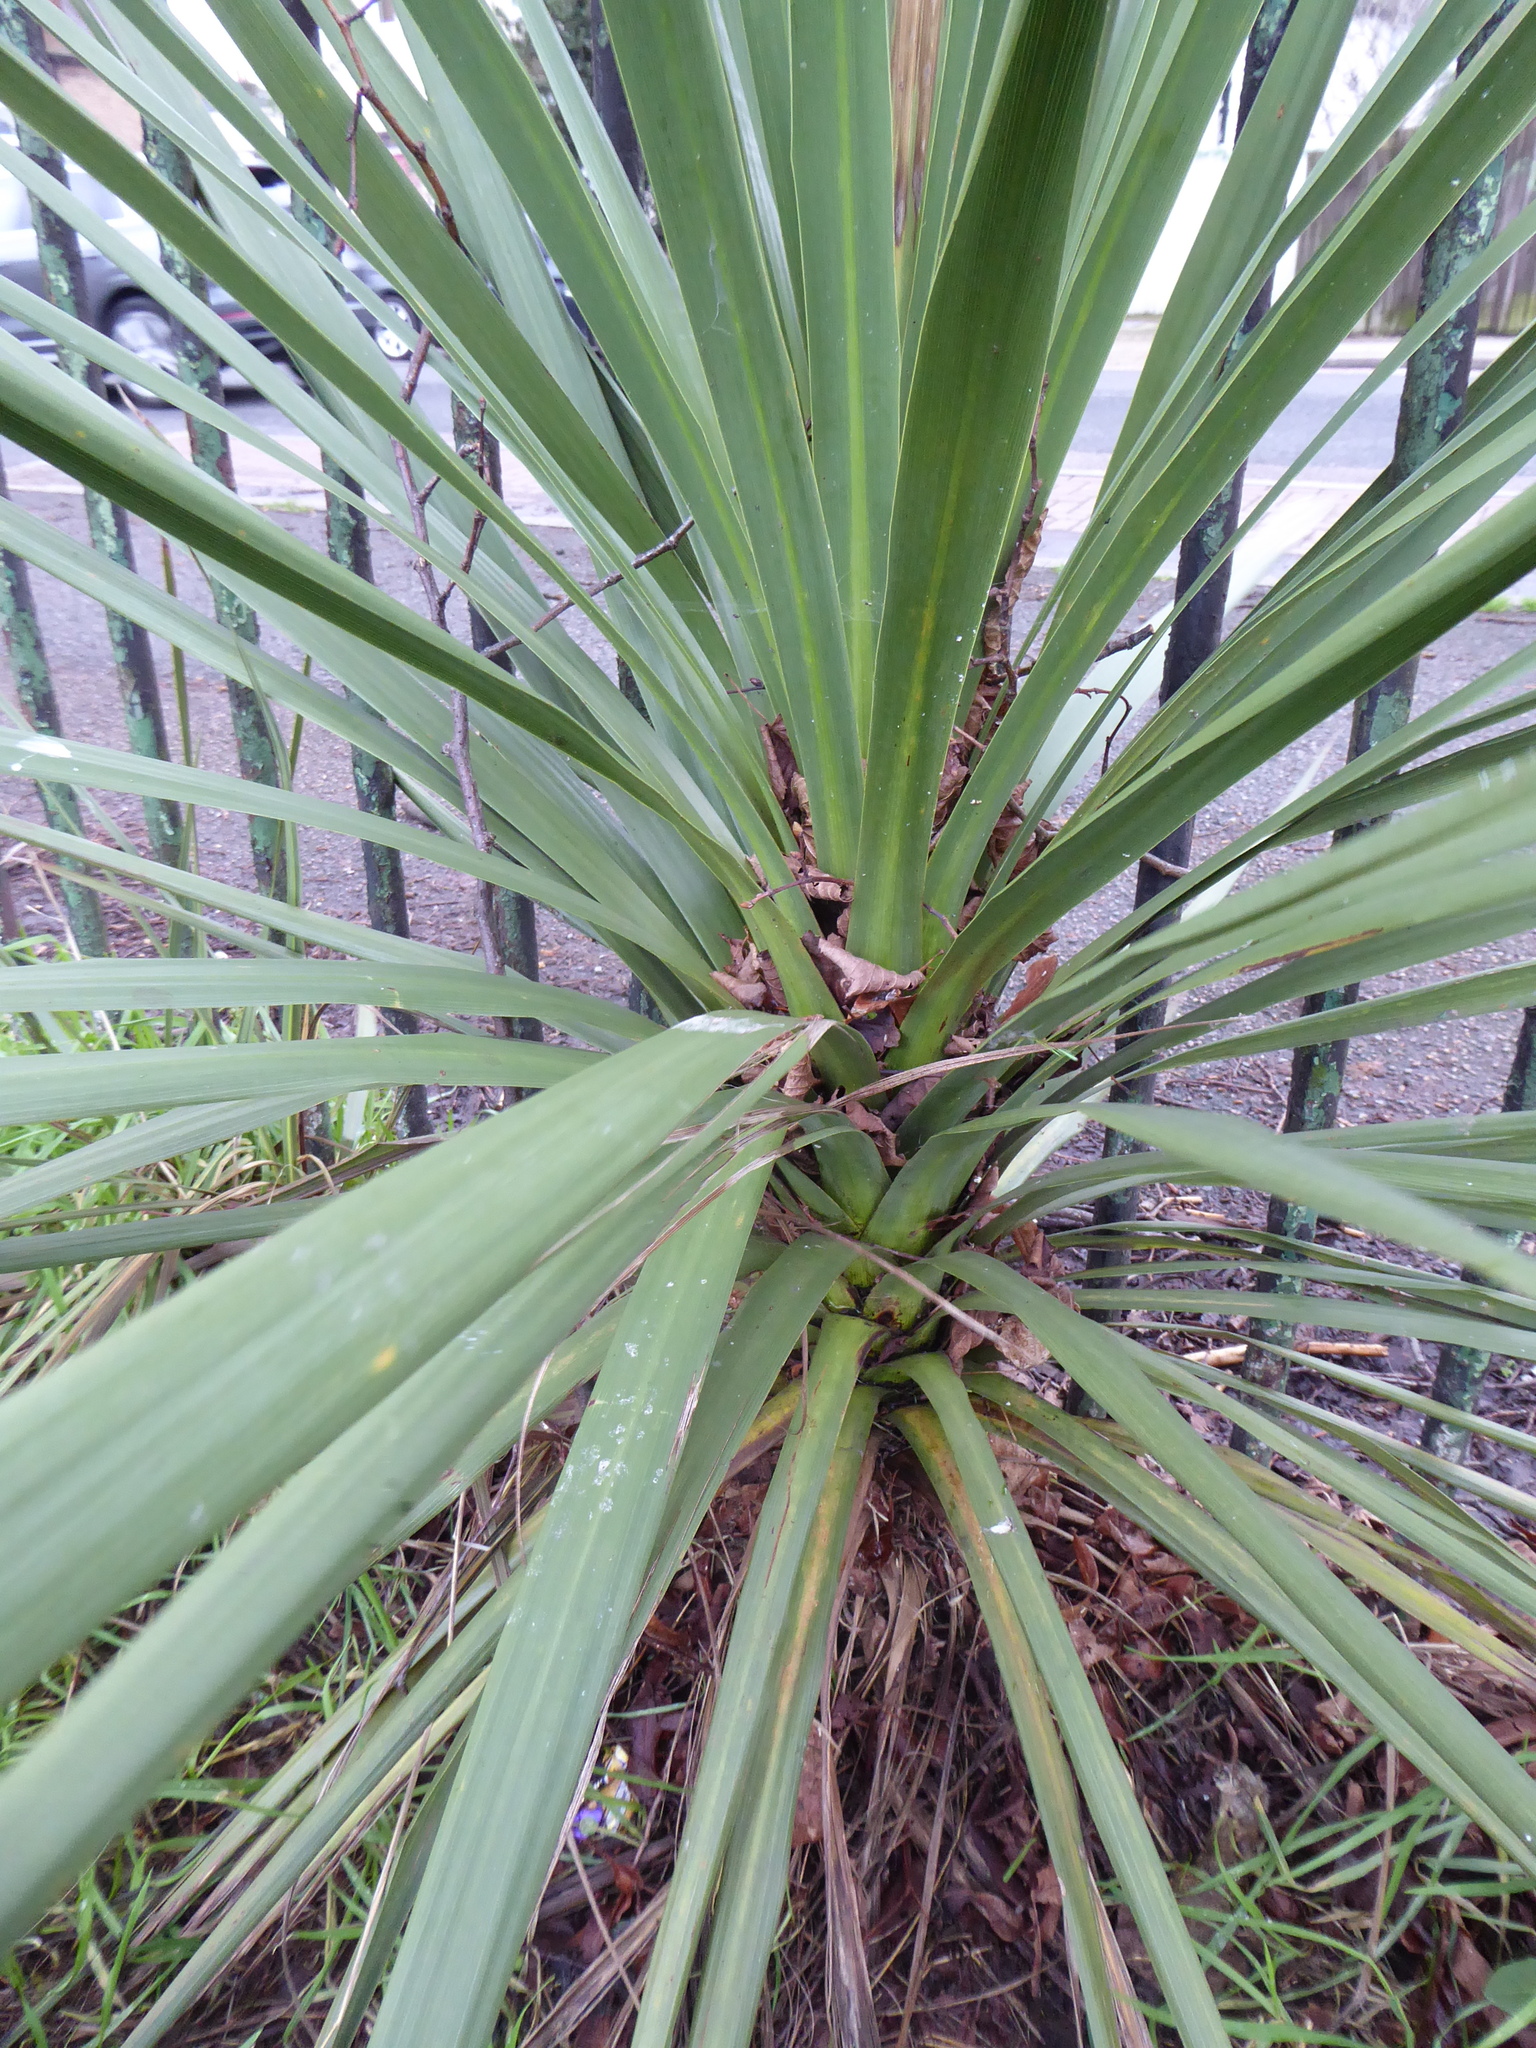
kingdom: Plantae
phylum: Tracheophyta
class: Liliopsida
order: Asparagales
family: Asparagaceae
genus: Cordyline
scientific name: Cordyline australis
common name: Cabbage-palm
